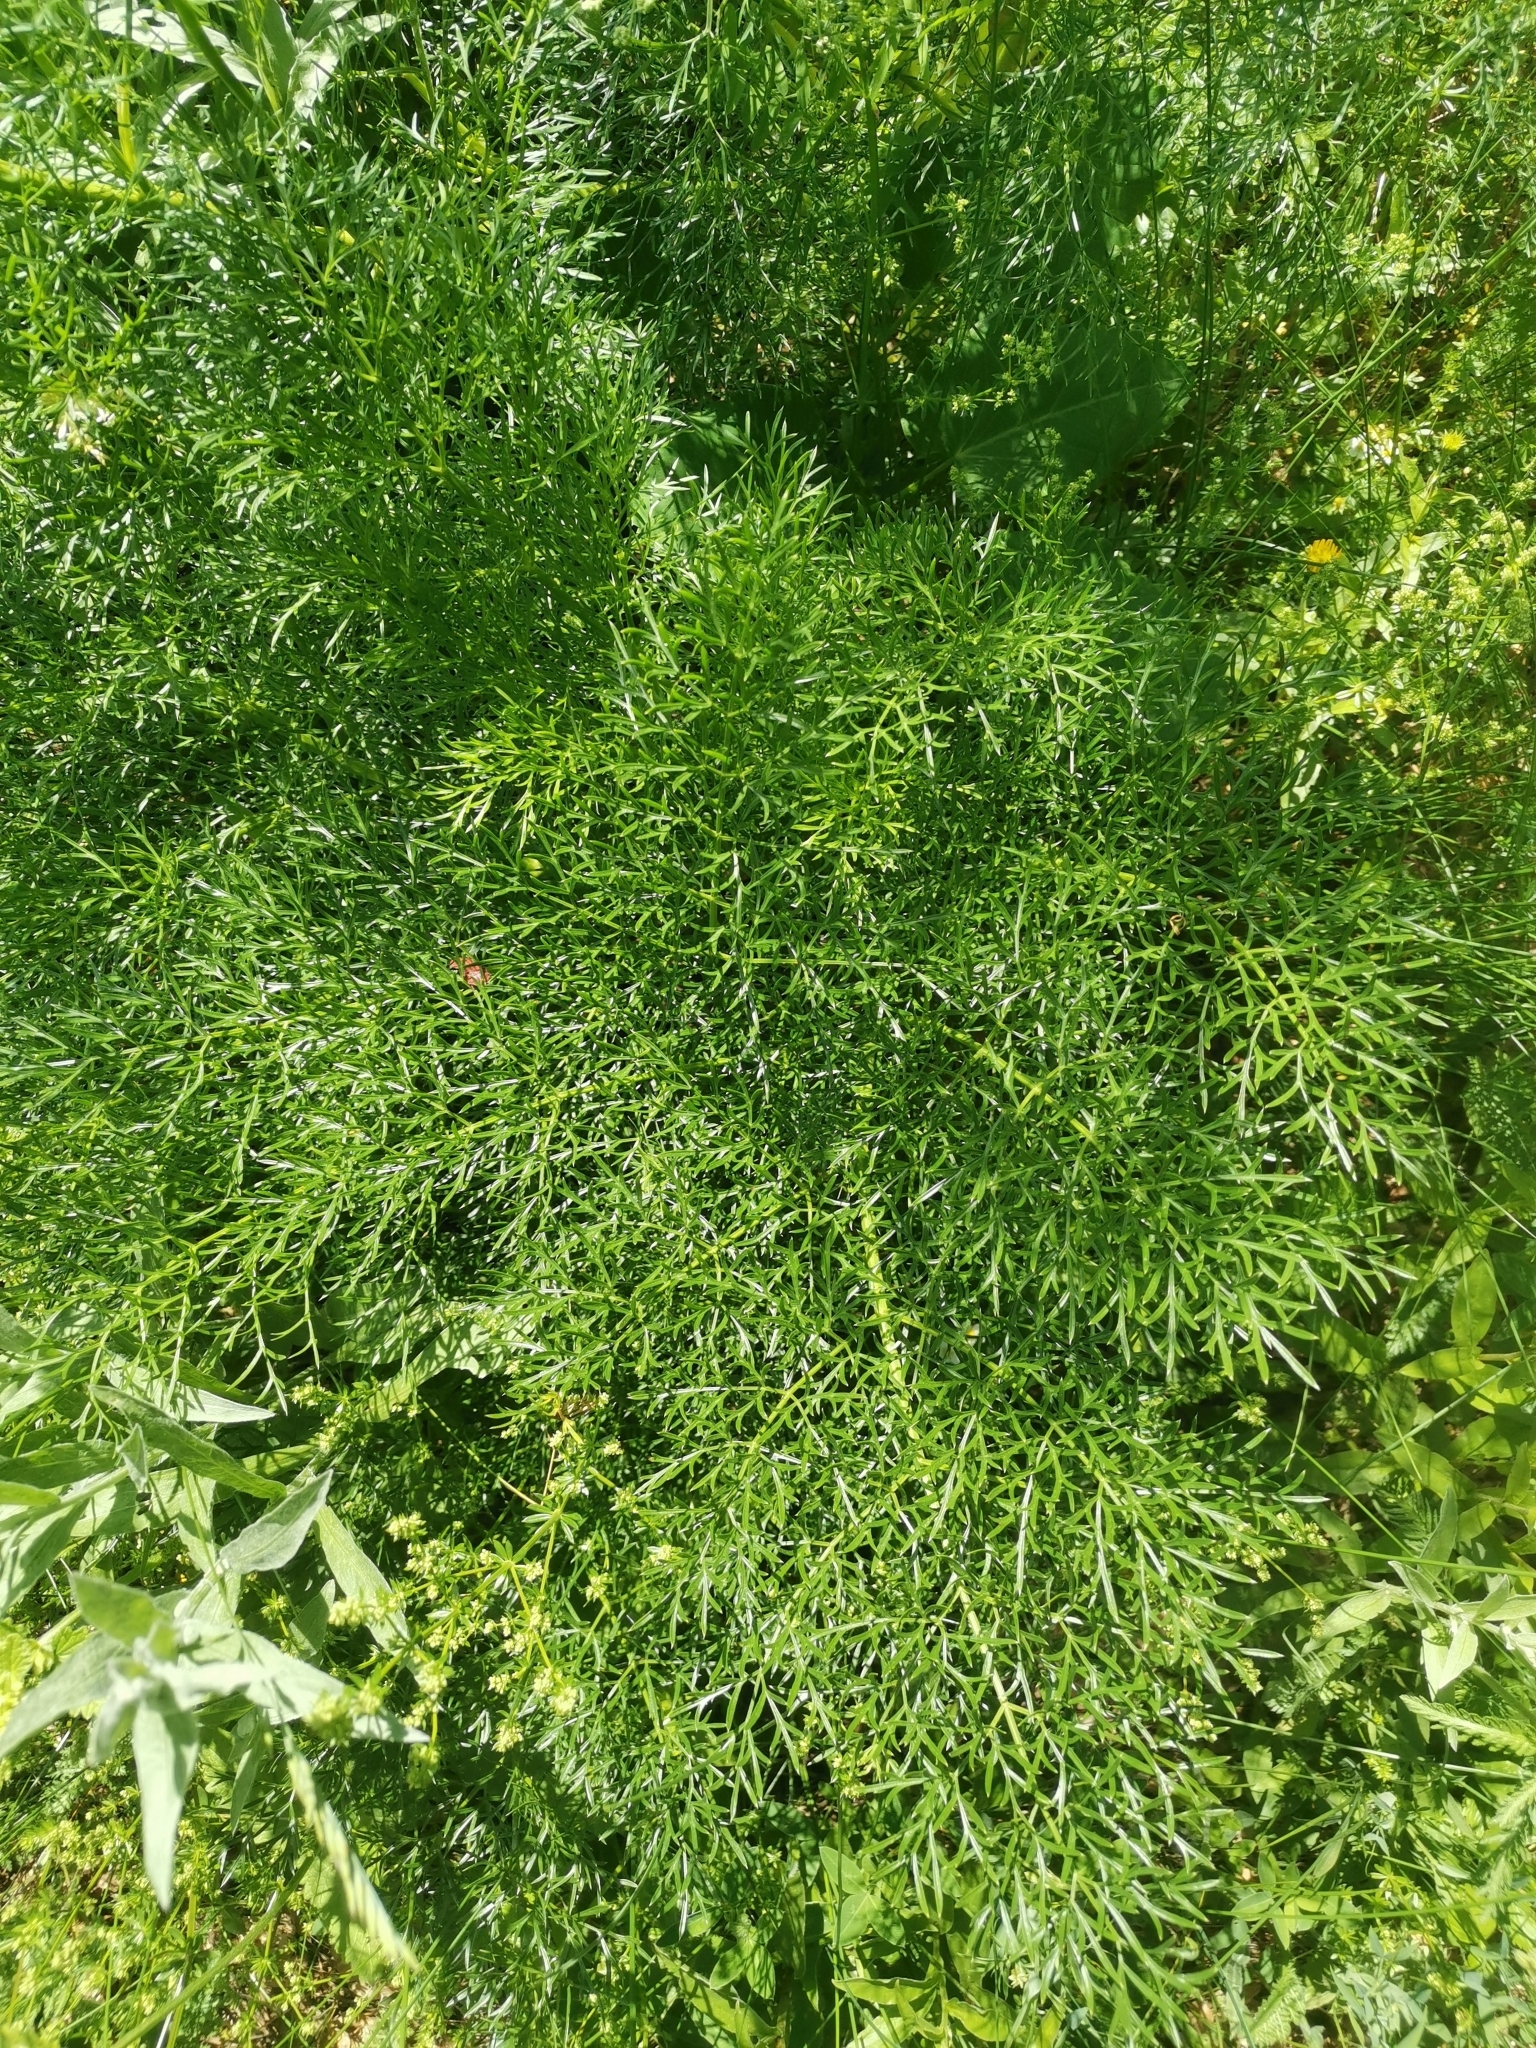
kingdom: Plantae
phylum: Tracheophyta
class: Magnoliopsida
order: Apiales
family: Apiaceae
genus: Coristospermum
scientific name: Coristospermum lucidum
